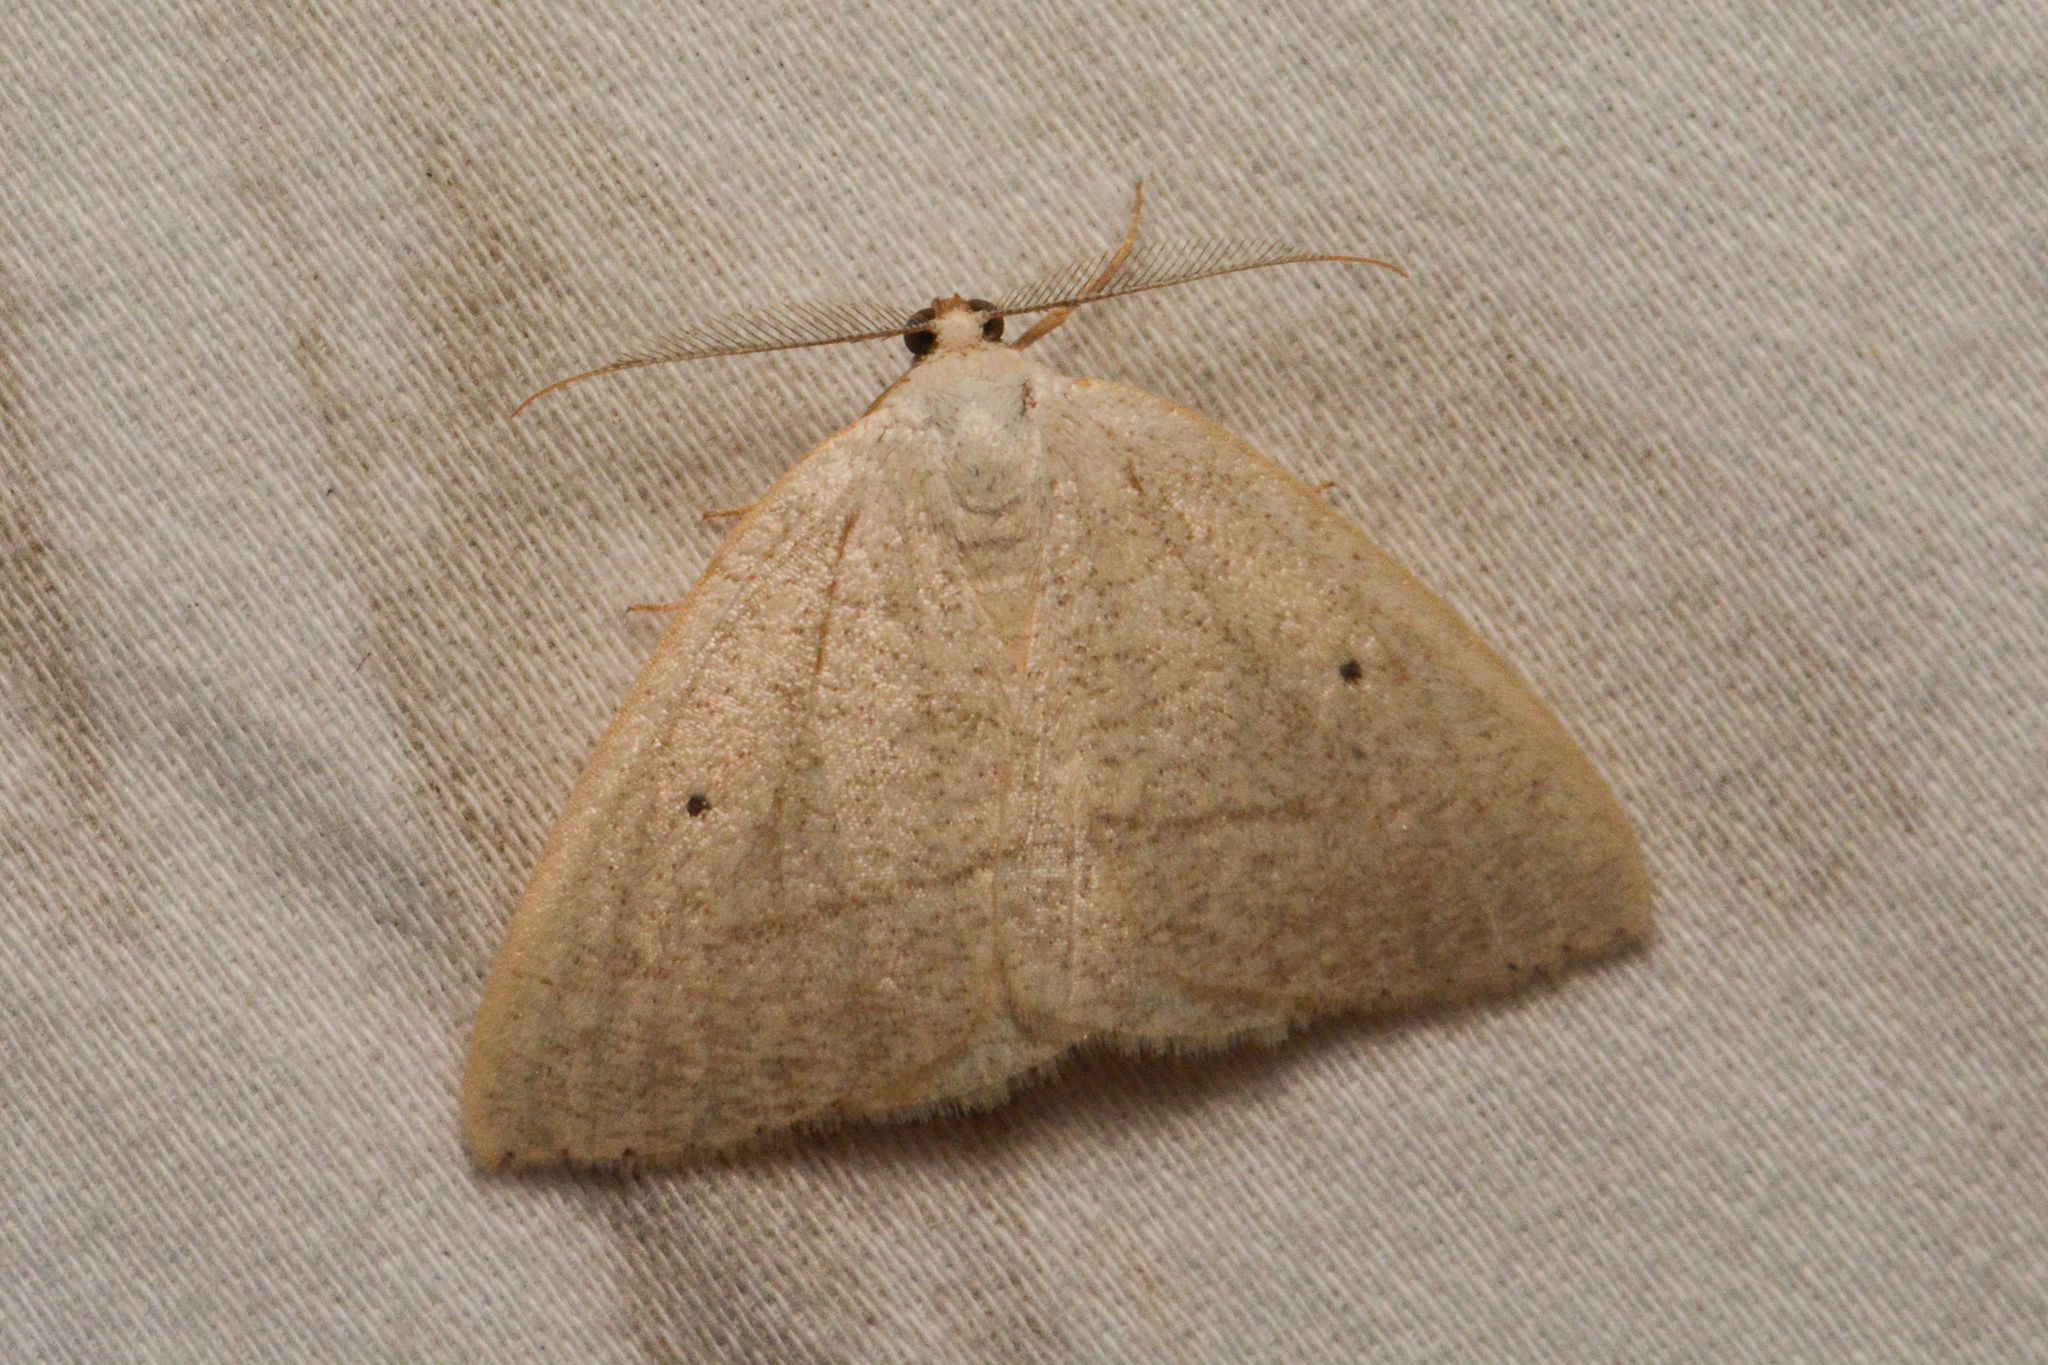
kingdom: Animalia
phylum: Arthropoda
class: Insecta
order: Lepidoptera
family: Geometridae
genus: Eudrepanulatrix
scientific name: Eudrepanulatrix rectifascia
